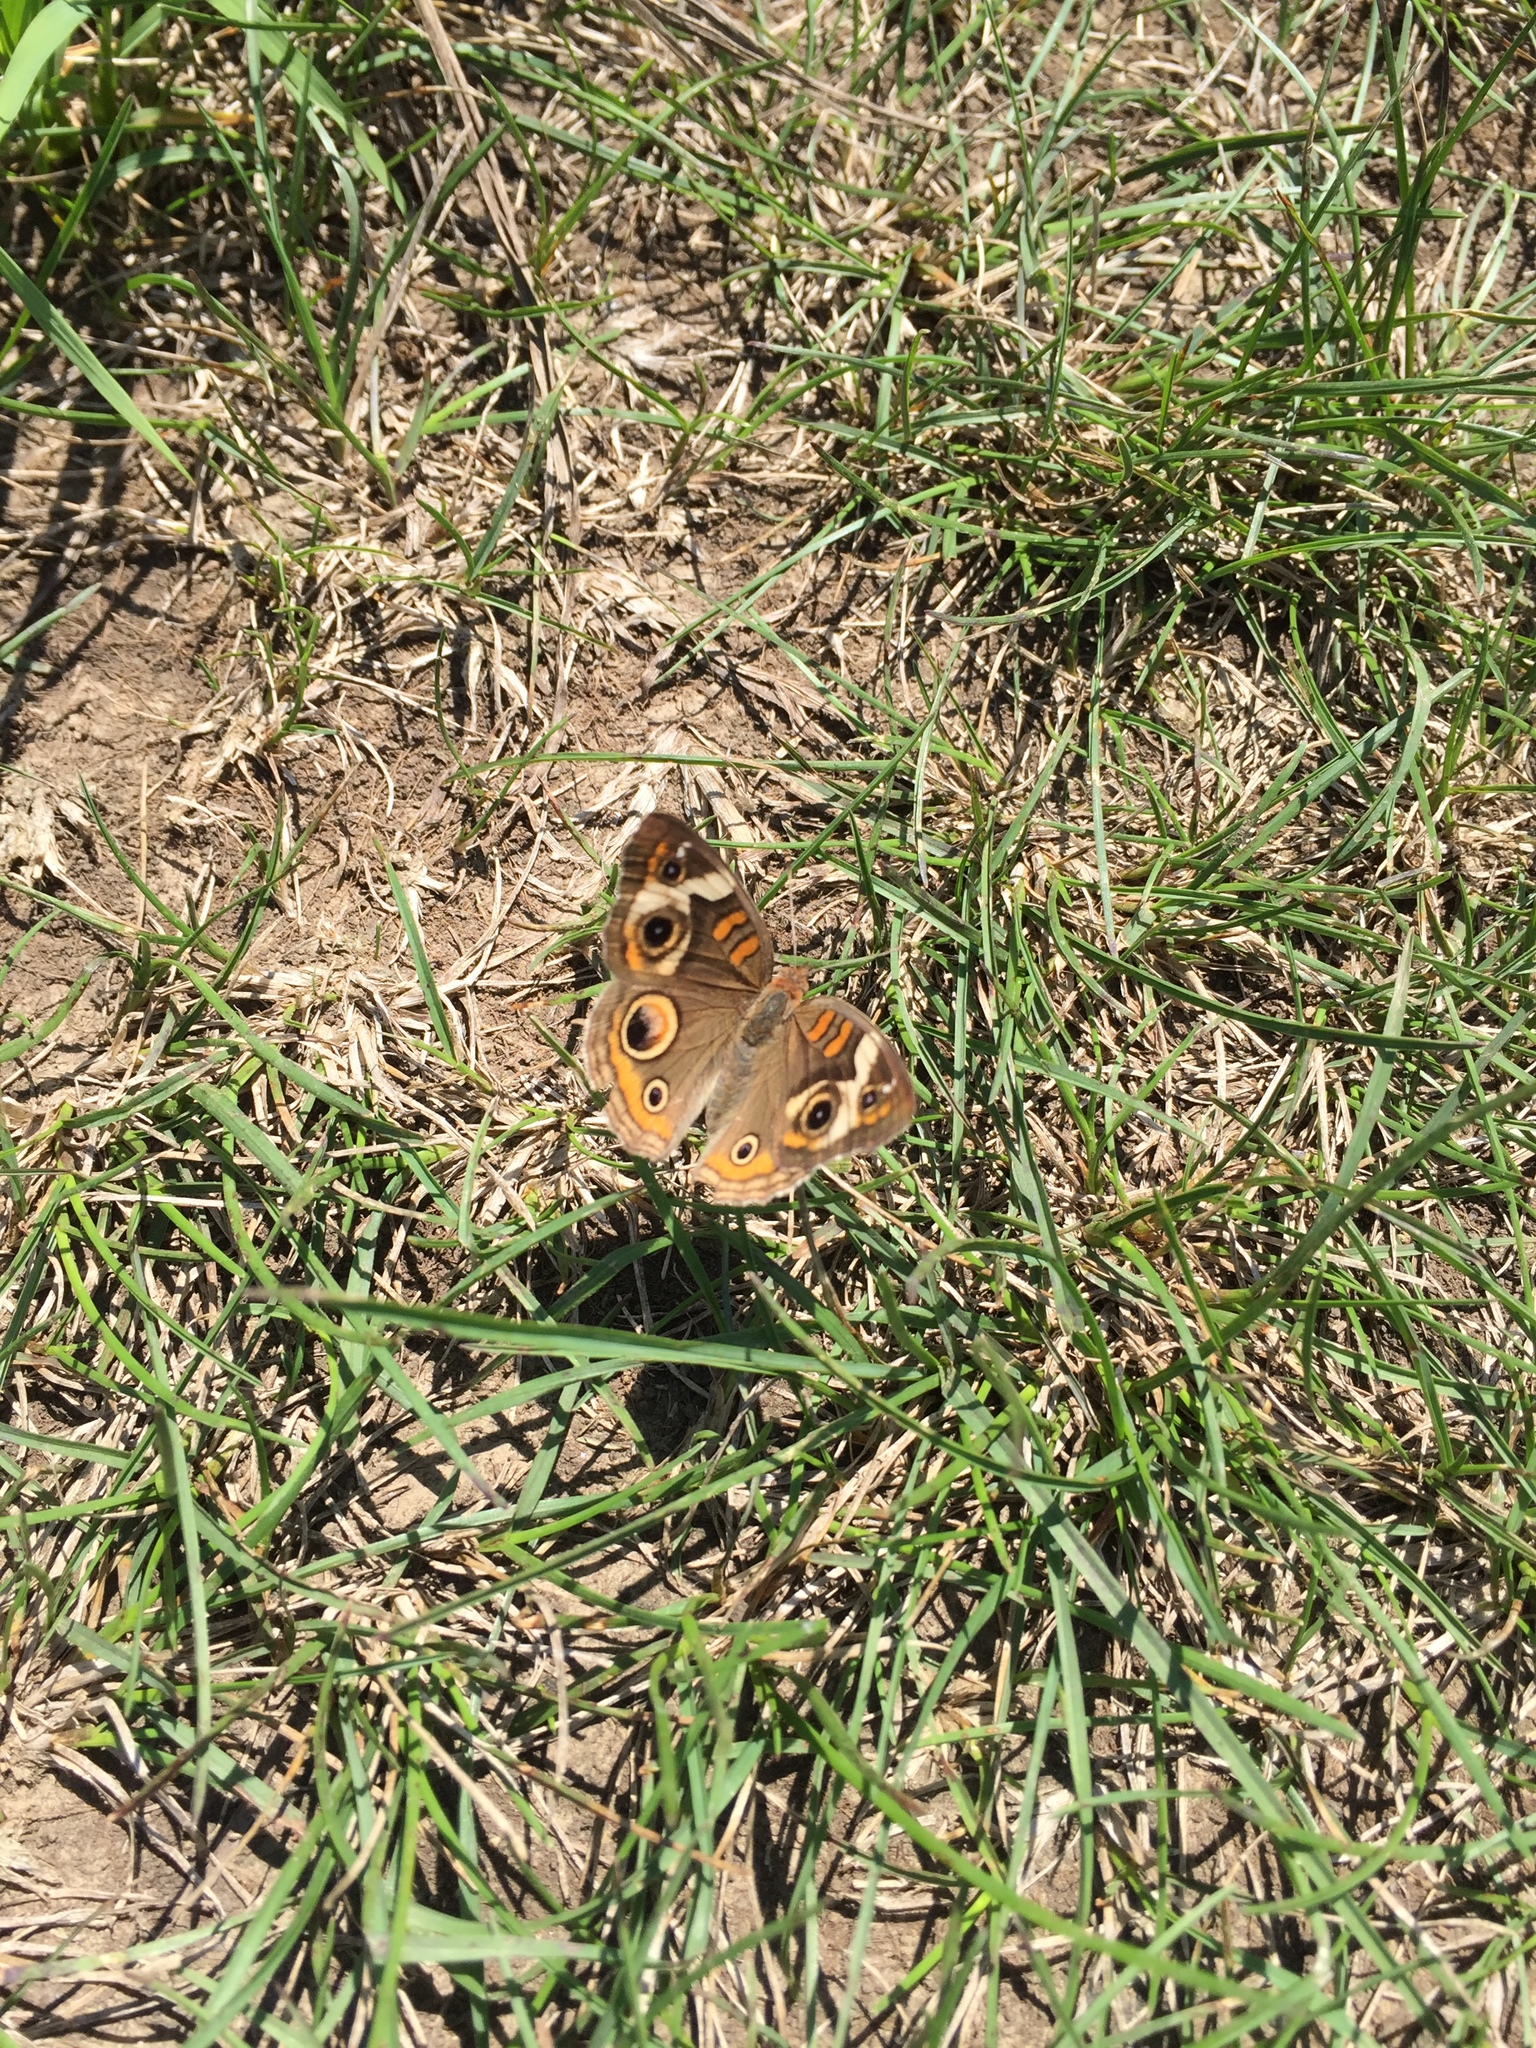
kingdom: Animalia
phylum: Arthropoda
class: Insecta
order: Lepidoptera
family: Nymphalidae
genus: Junonia
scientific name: Junonia coenia
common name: Common buckeye
